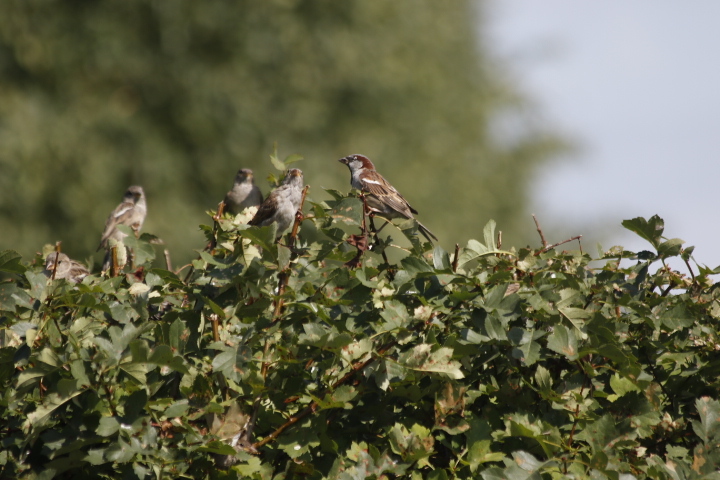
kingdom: Animalia
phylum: Chordata
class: Aves
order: Passeriformes
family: Passeridae
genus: Passer
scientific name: Passer domesticus
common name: House sparrow
